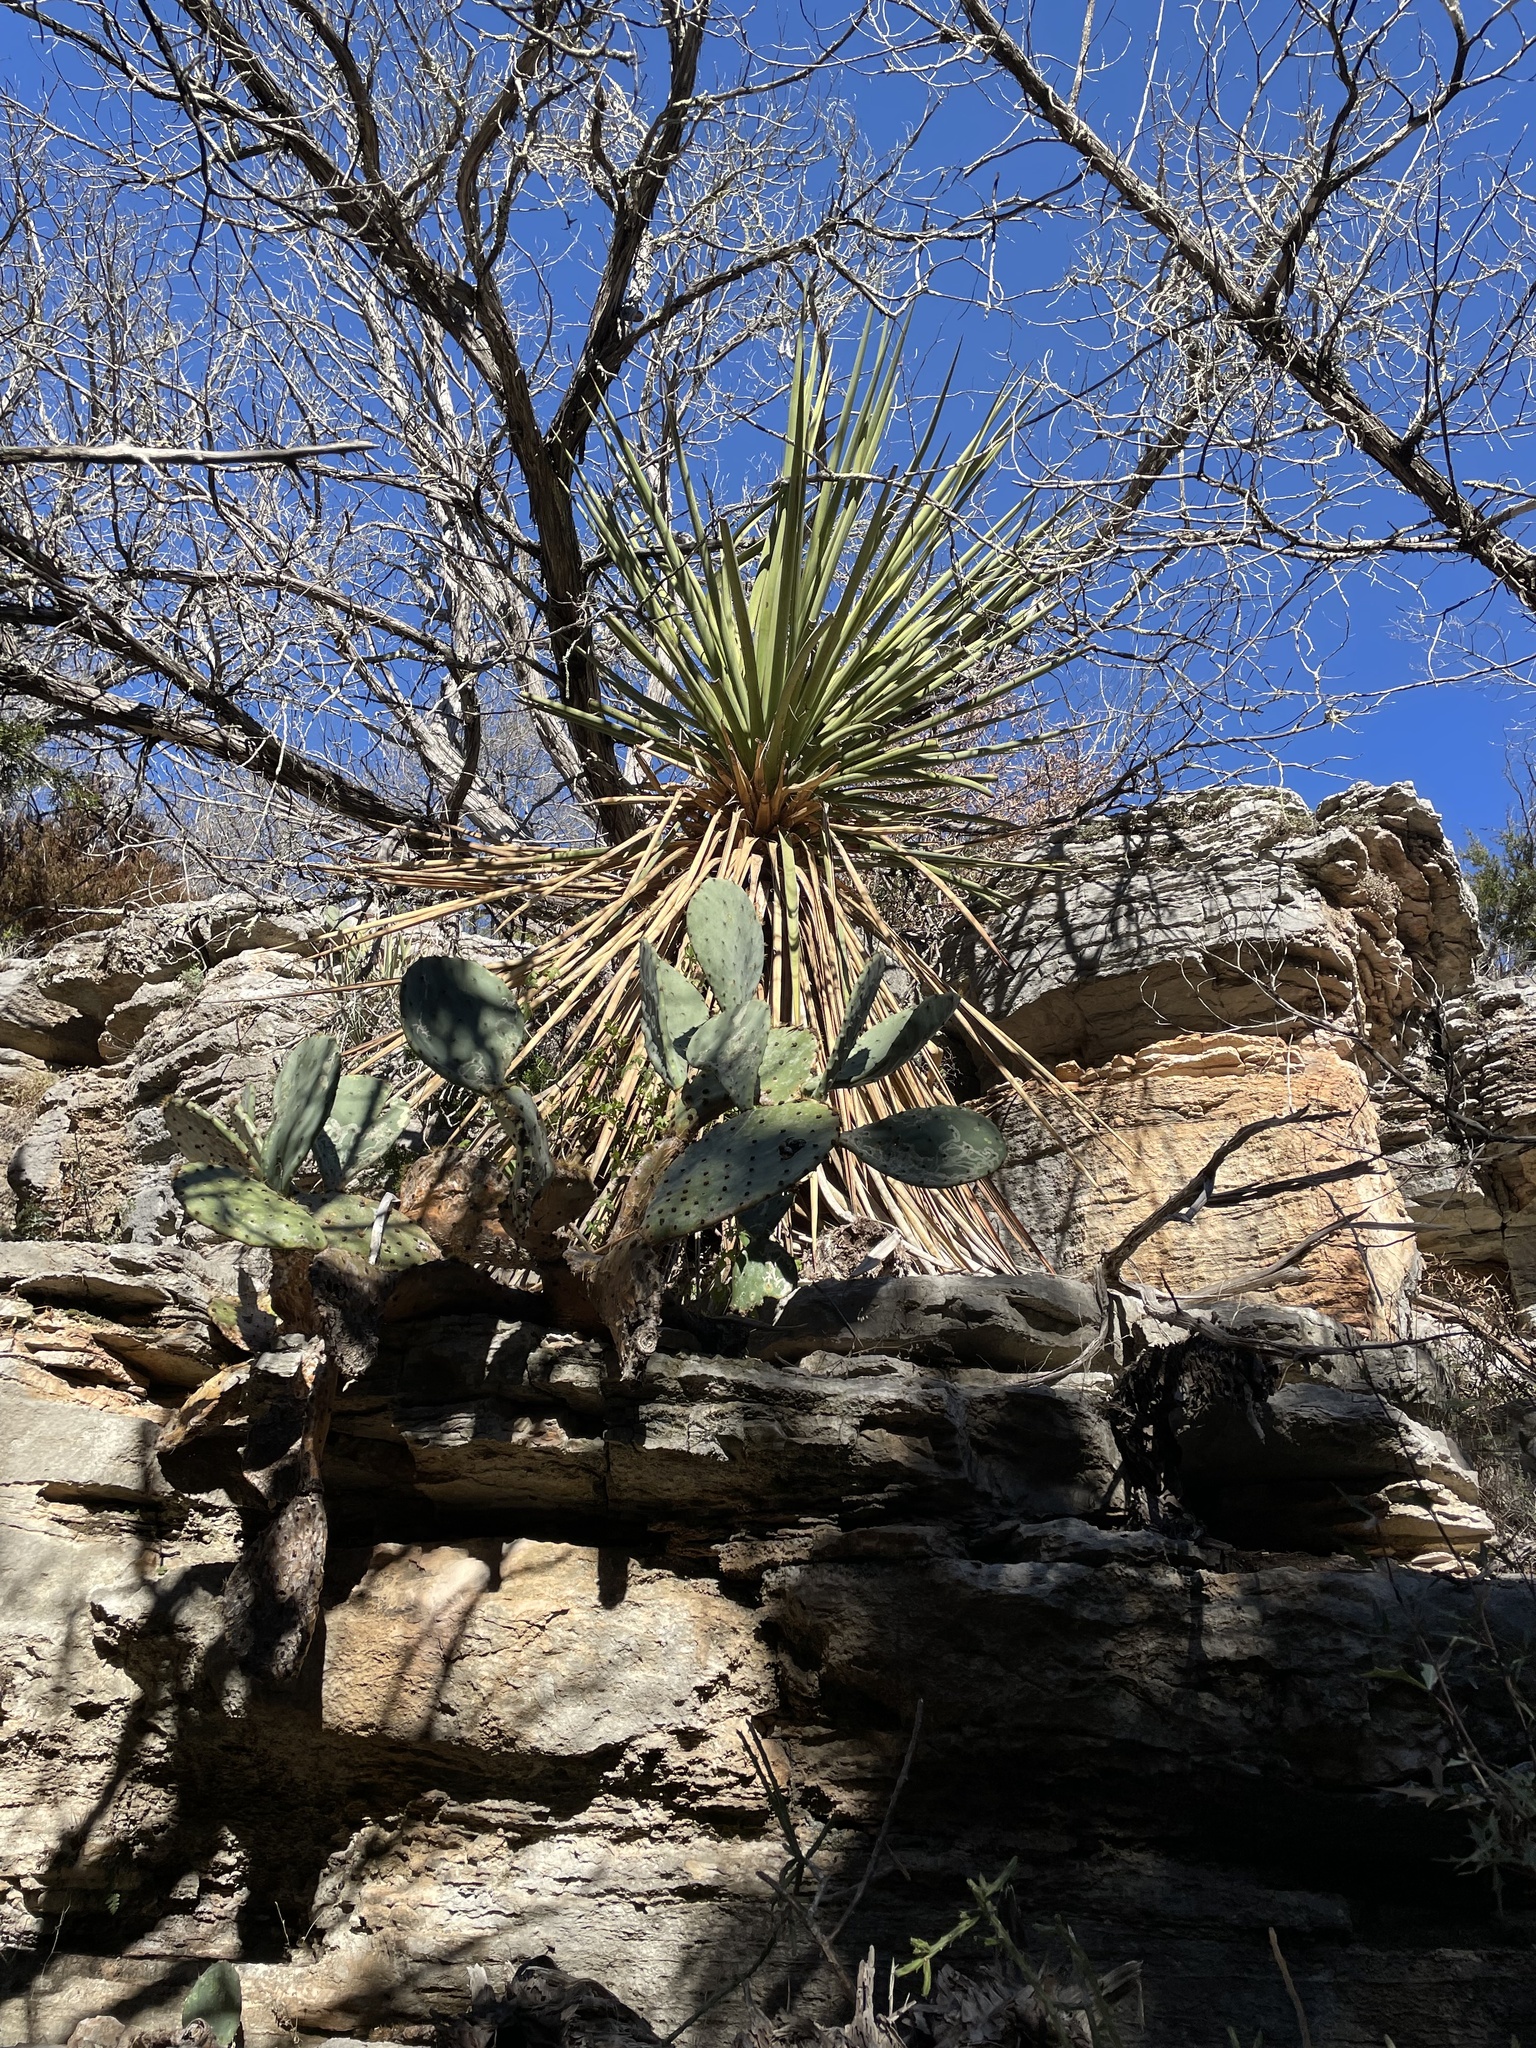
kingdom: Plantae
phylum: Tracheophyta
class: Liliopsida
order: Asparagales
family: Asparagaceae
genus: Yucca
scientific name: Yucca treculiana
